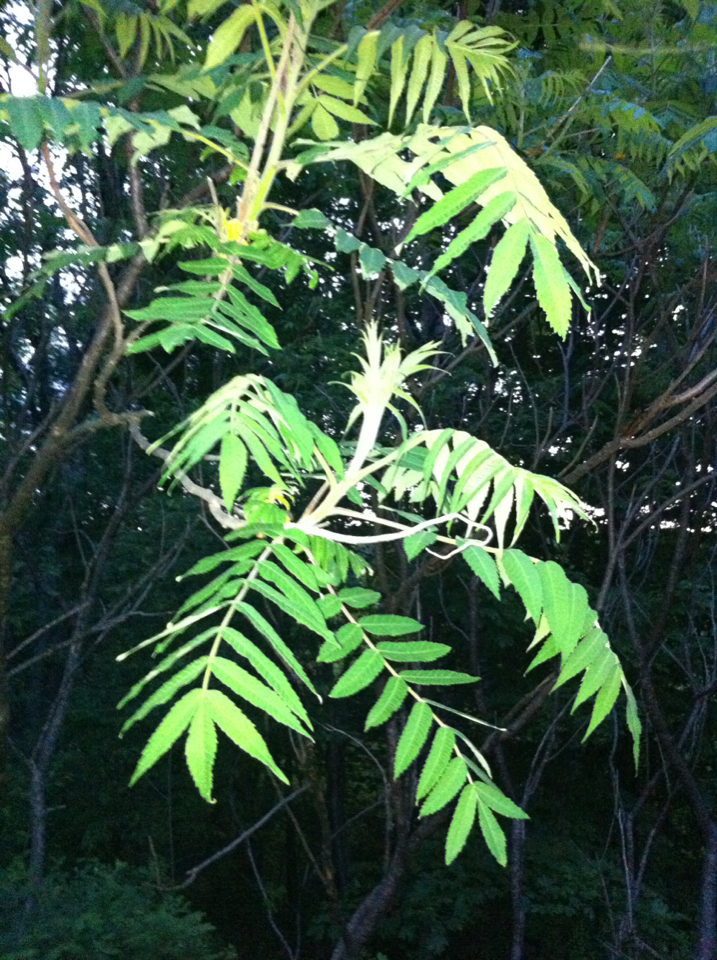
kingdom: Plantae
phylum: Tracheophyta
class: Magnoliopsida
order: Sapindales
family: Anacardiaceae
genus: Rhus
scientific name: Rhus typhina
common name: Staghorn sumac
